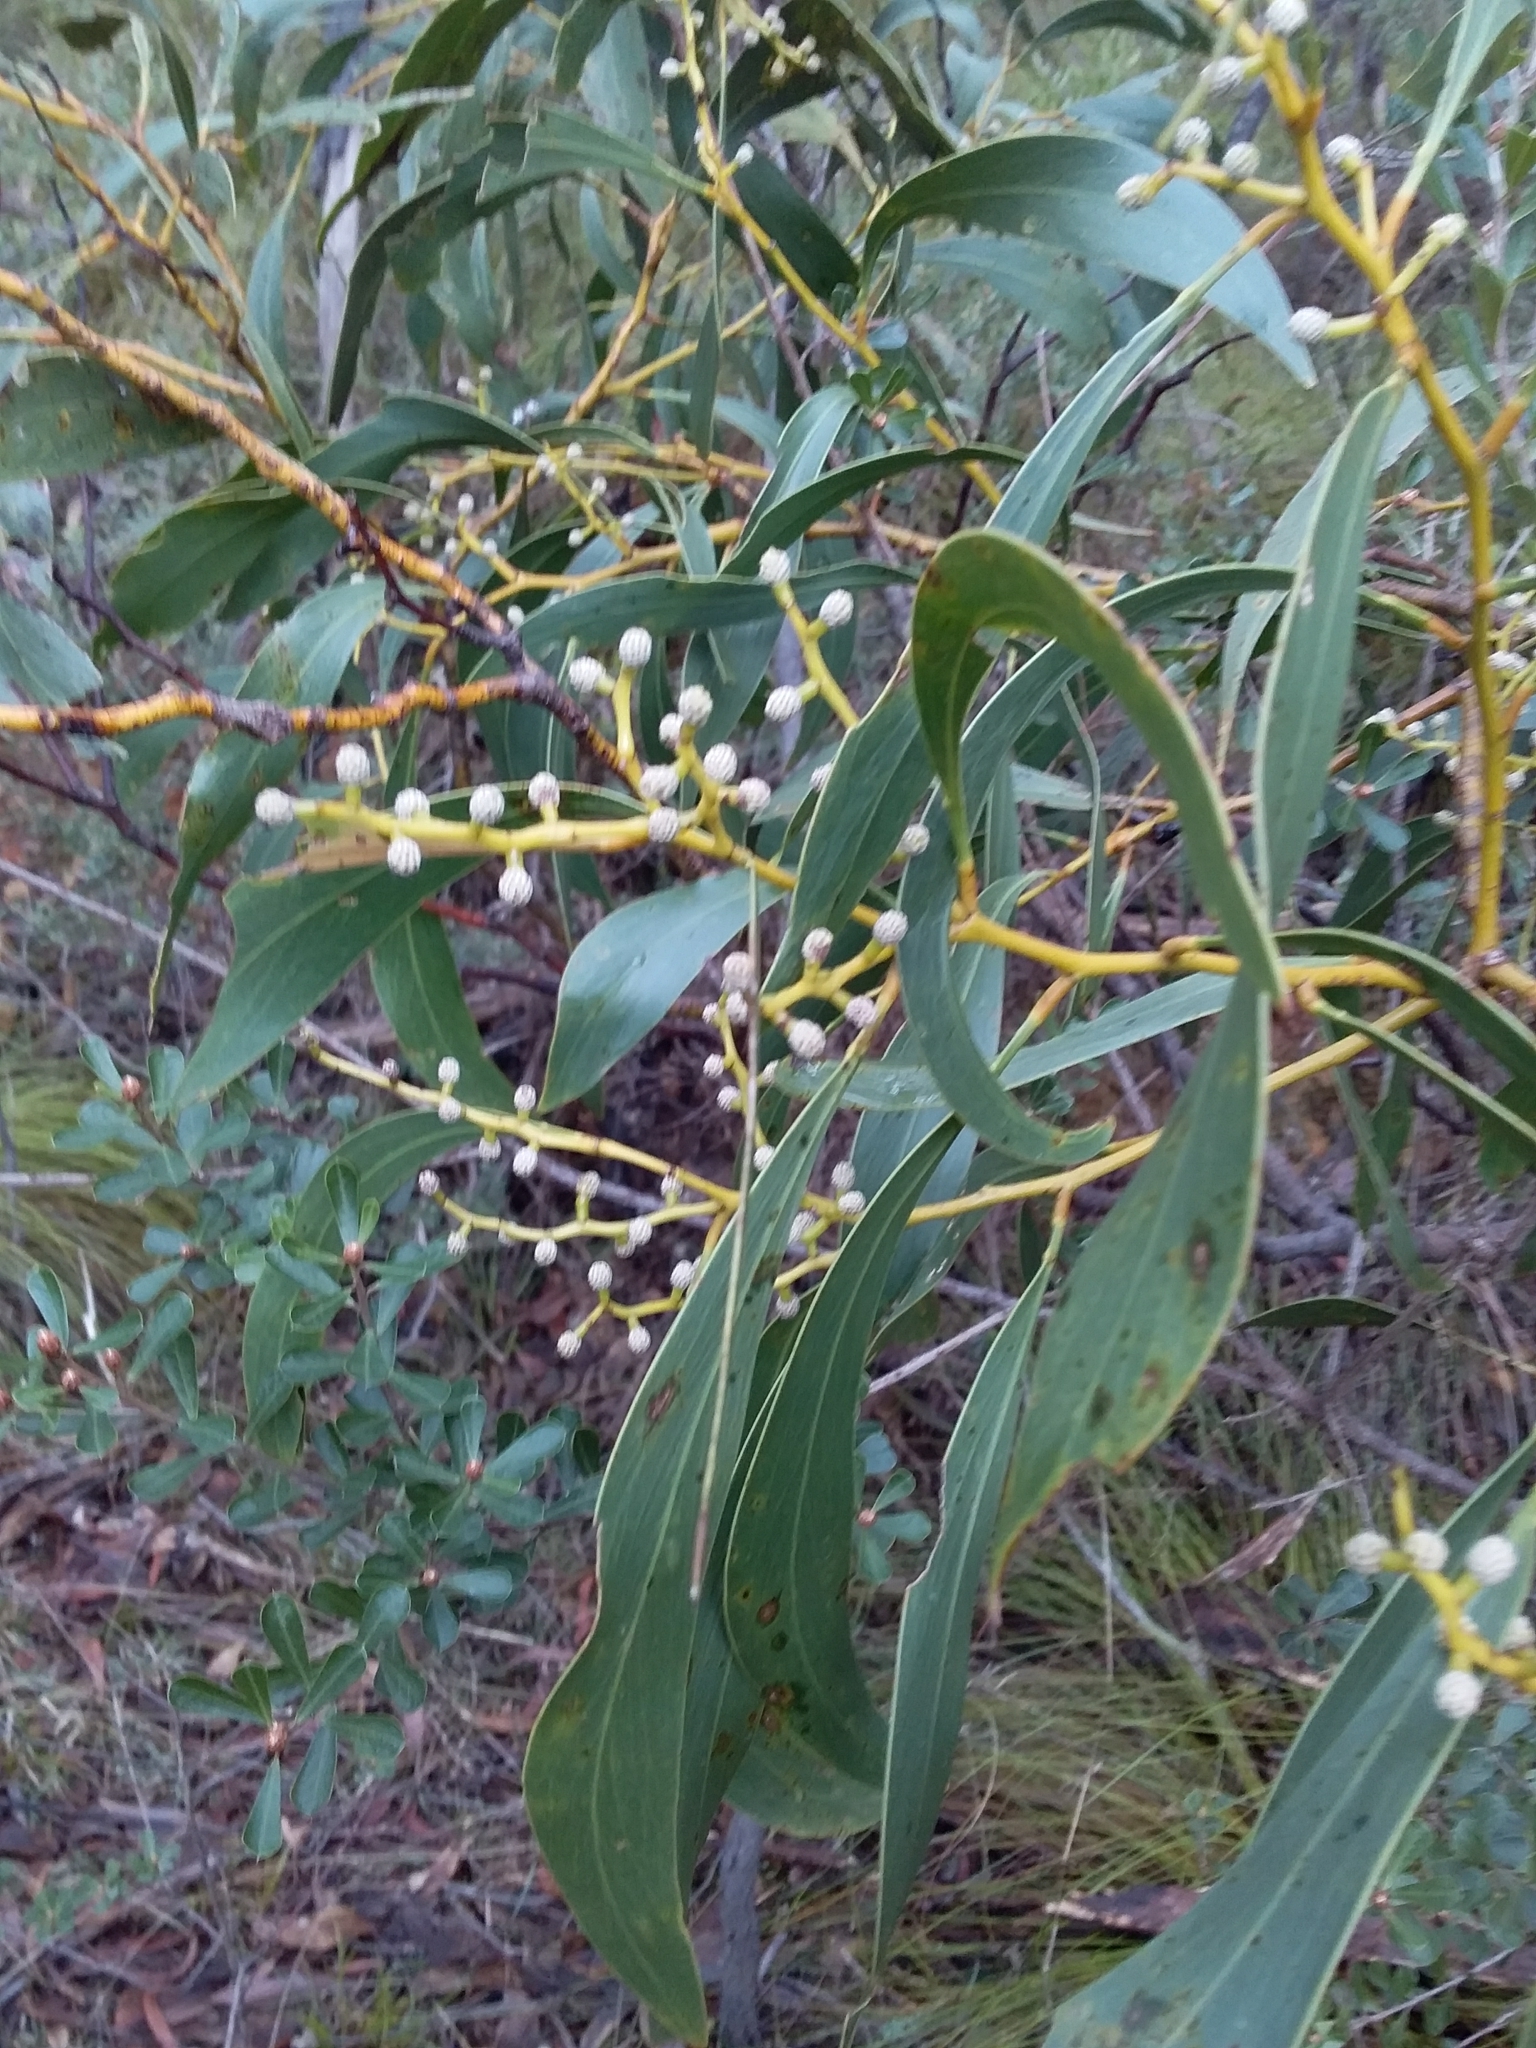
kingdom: Plantae
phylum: Tracheophyta
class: Magnoliopsida
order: Fabales
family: Fabaceae
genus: Acacia
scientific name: Acacia pycnantha
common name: Golden wattle
